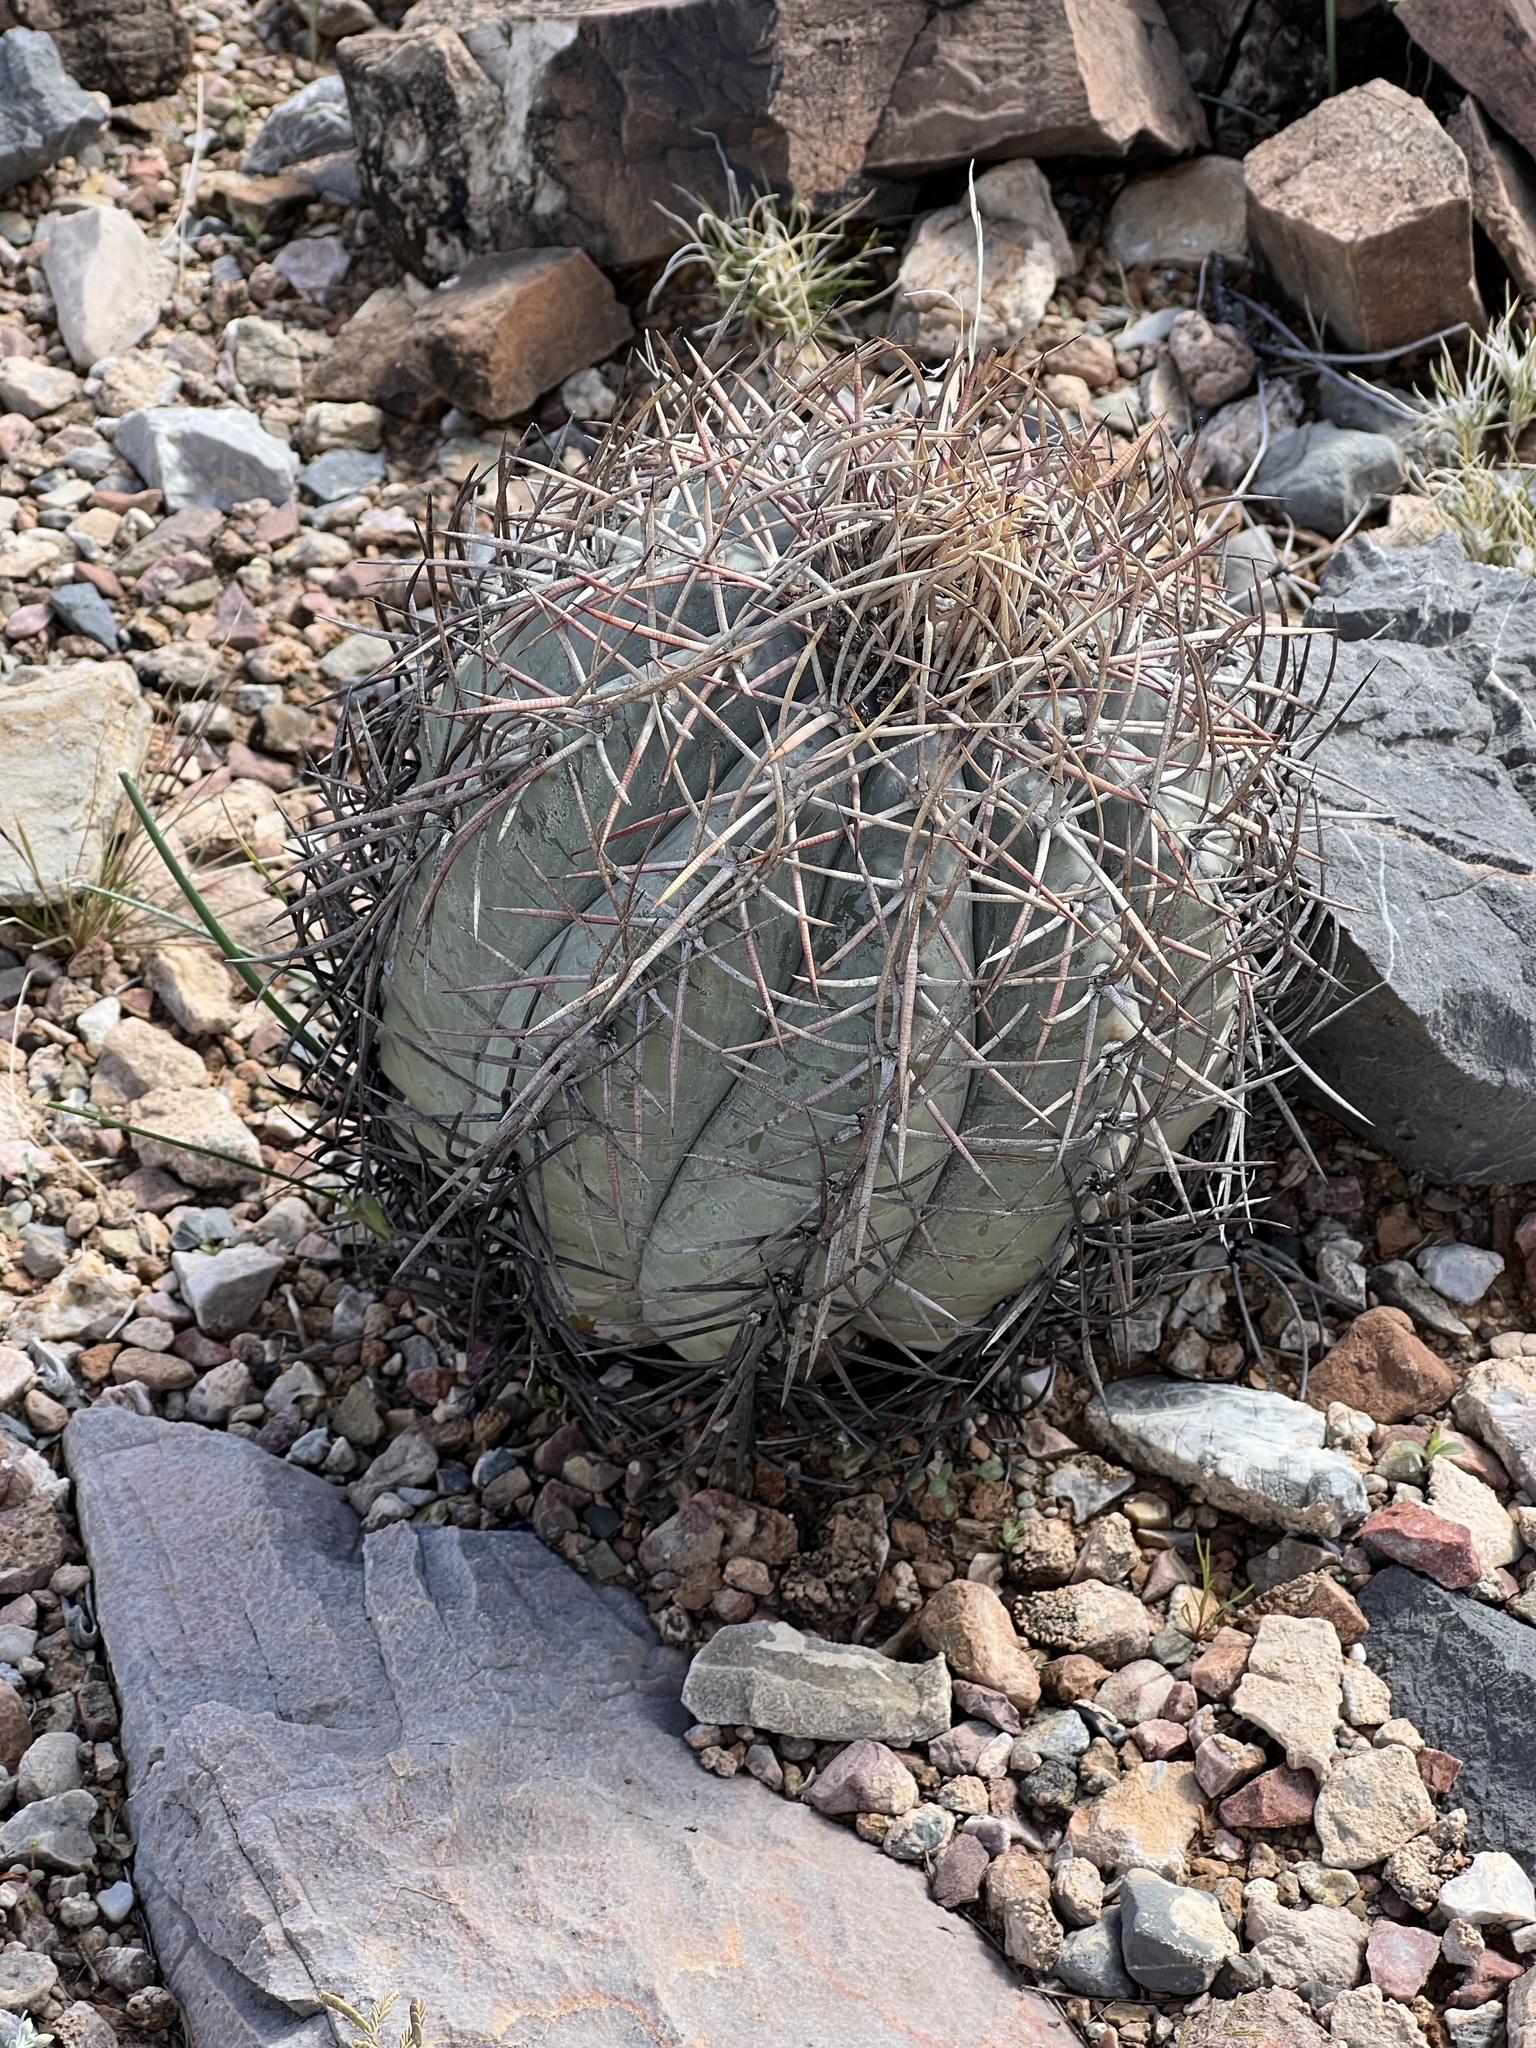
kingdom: Plantae
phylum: Tracheophyta
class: Magnoliopsida
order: Caryophyllales
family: Cactaceae
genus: Echinocactus
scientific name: Echinocactus horizonthalonius
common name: Devilshead
